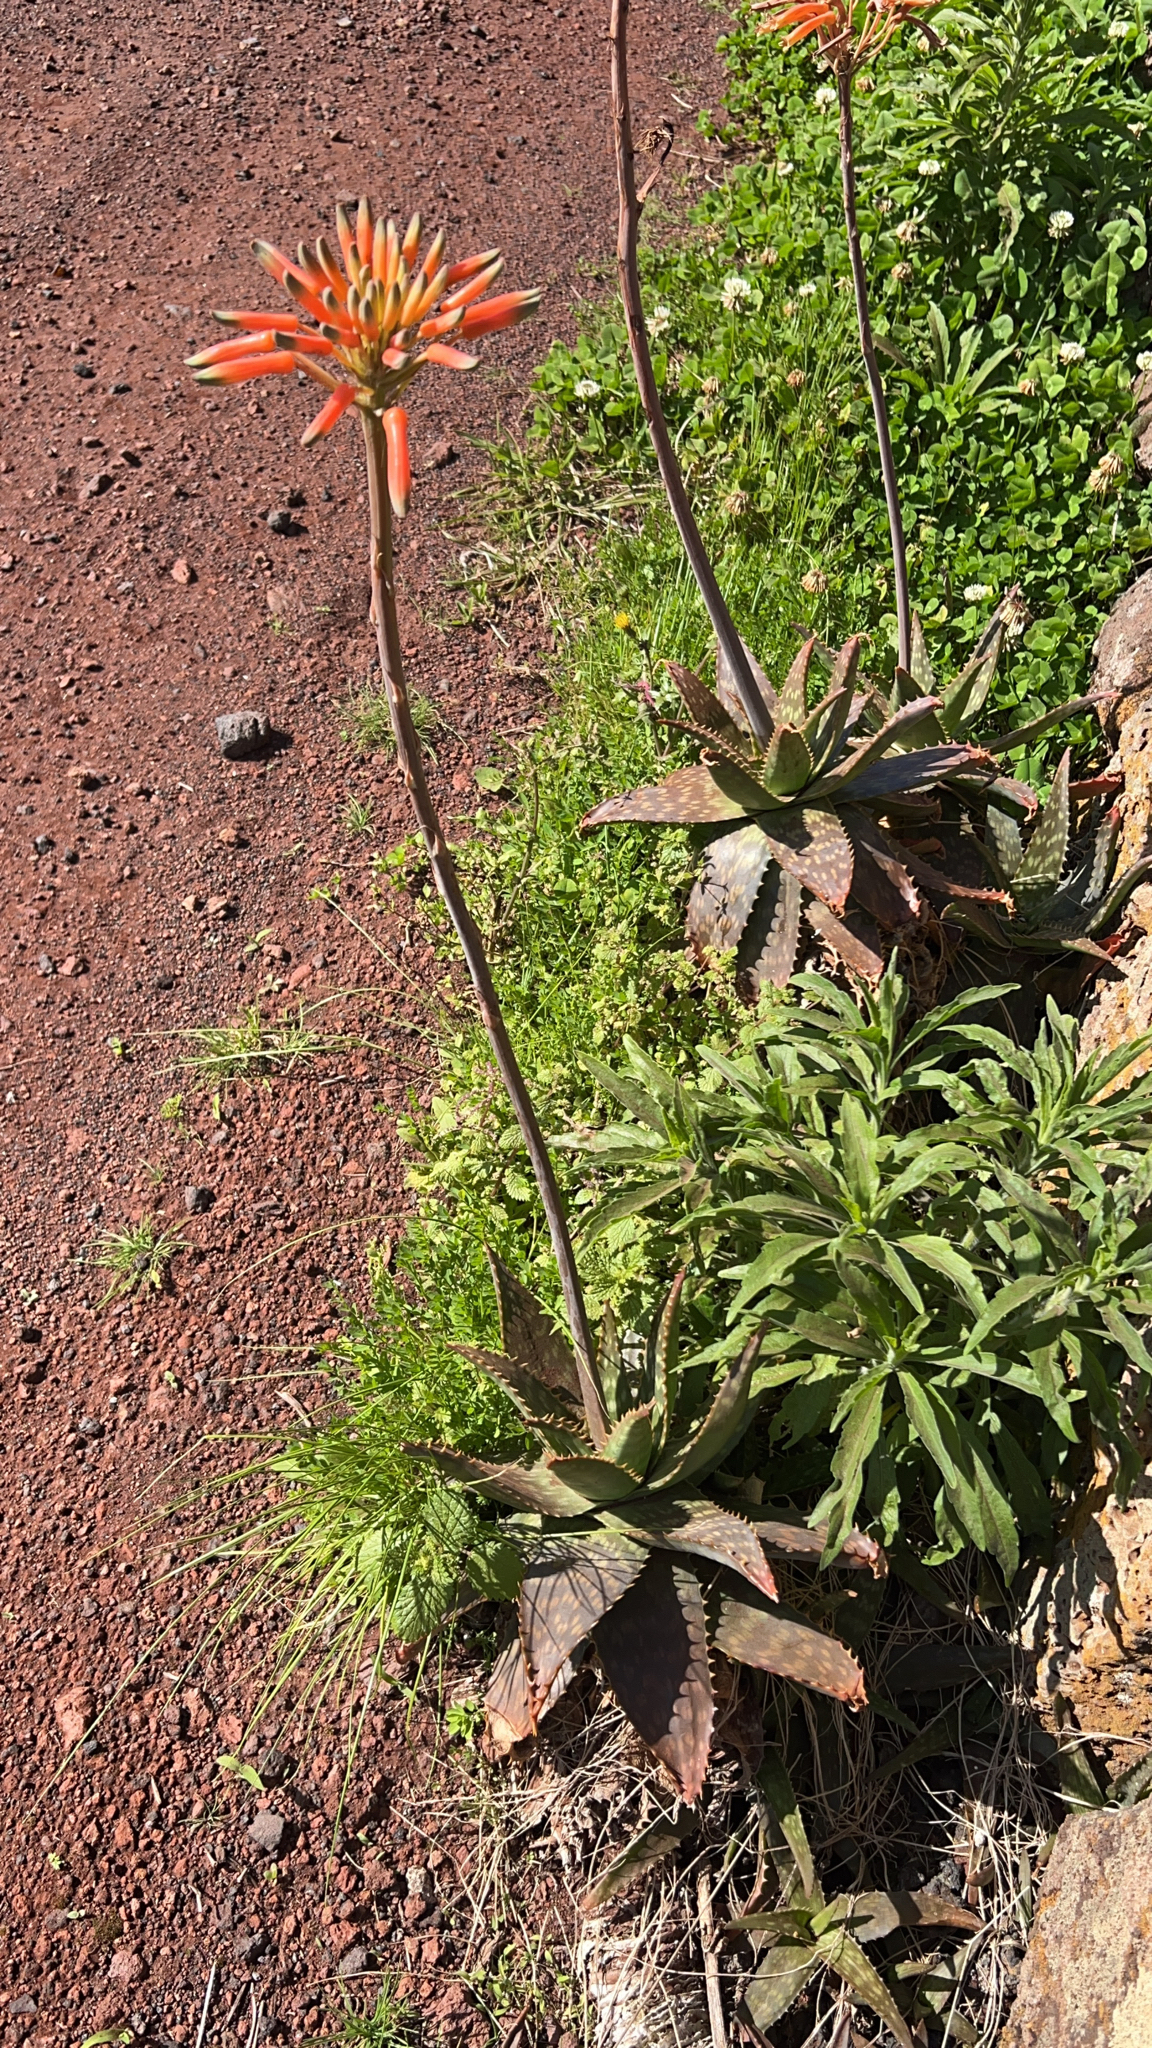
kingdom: Plantae
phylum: Tracheophyta
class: Liliopsida
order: Asparagales
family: Asphodelaceae
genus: Aloe
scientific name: Aloe maculata
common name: Broadleaf aloe
